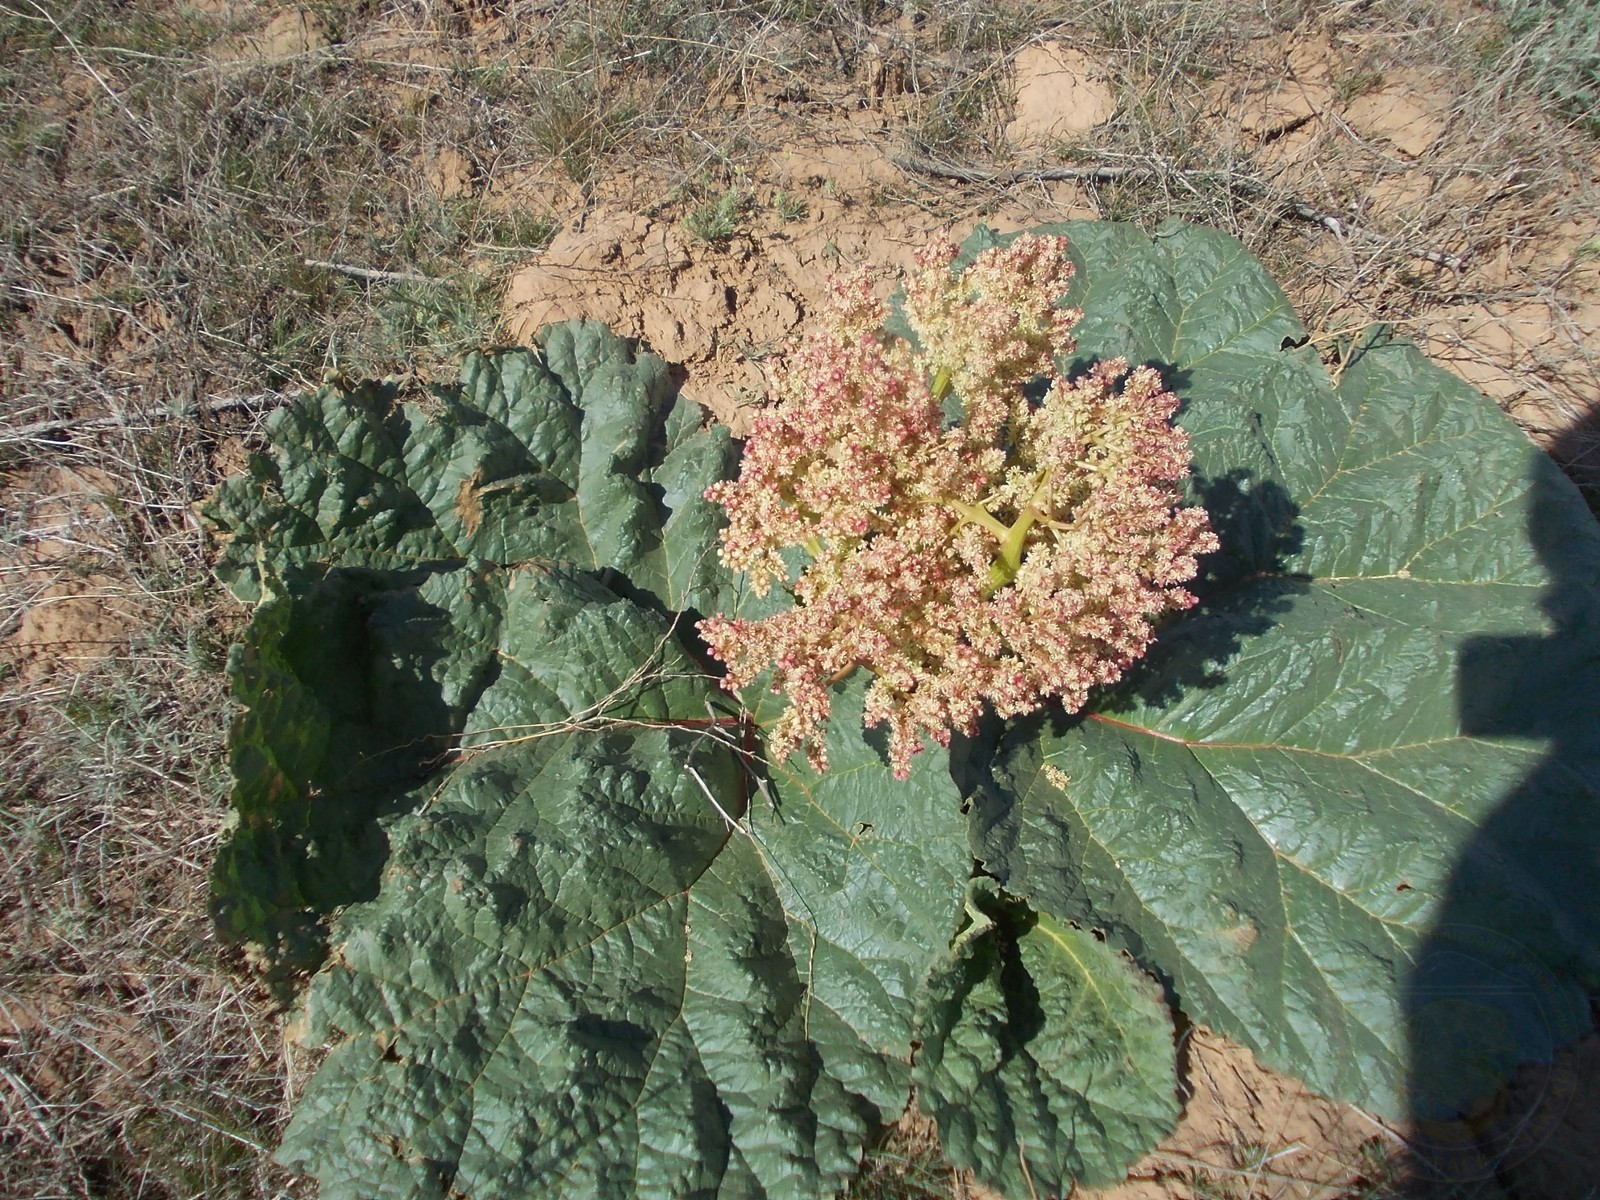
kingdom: Plantae
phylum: Tracheophyta
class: Magnoliopsida
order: Caryophyllales
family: Polygonaceae
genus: Rheum
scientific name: Rheum tataricum
